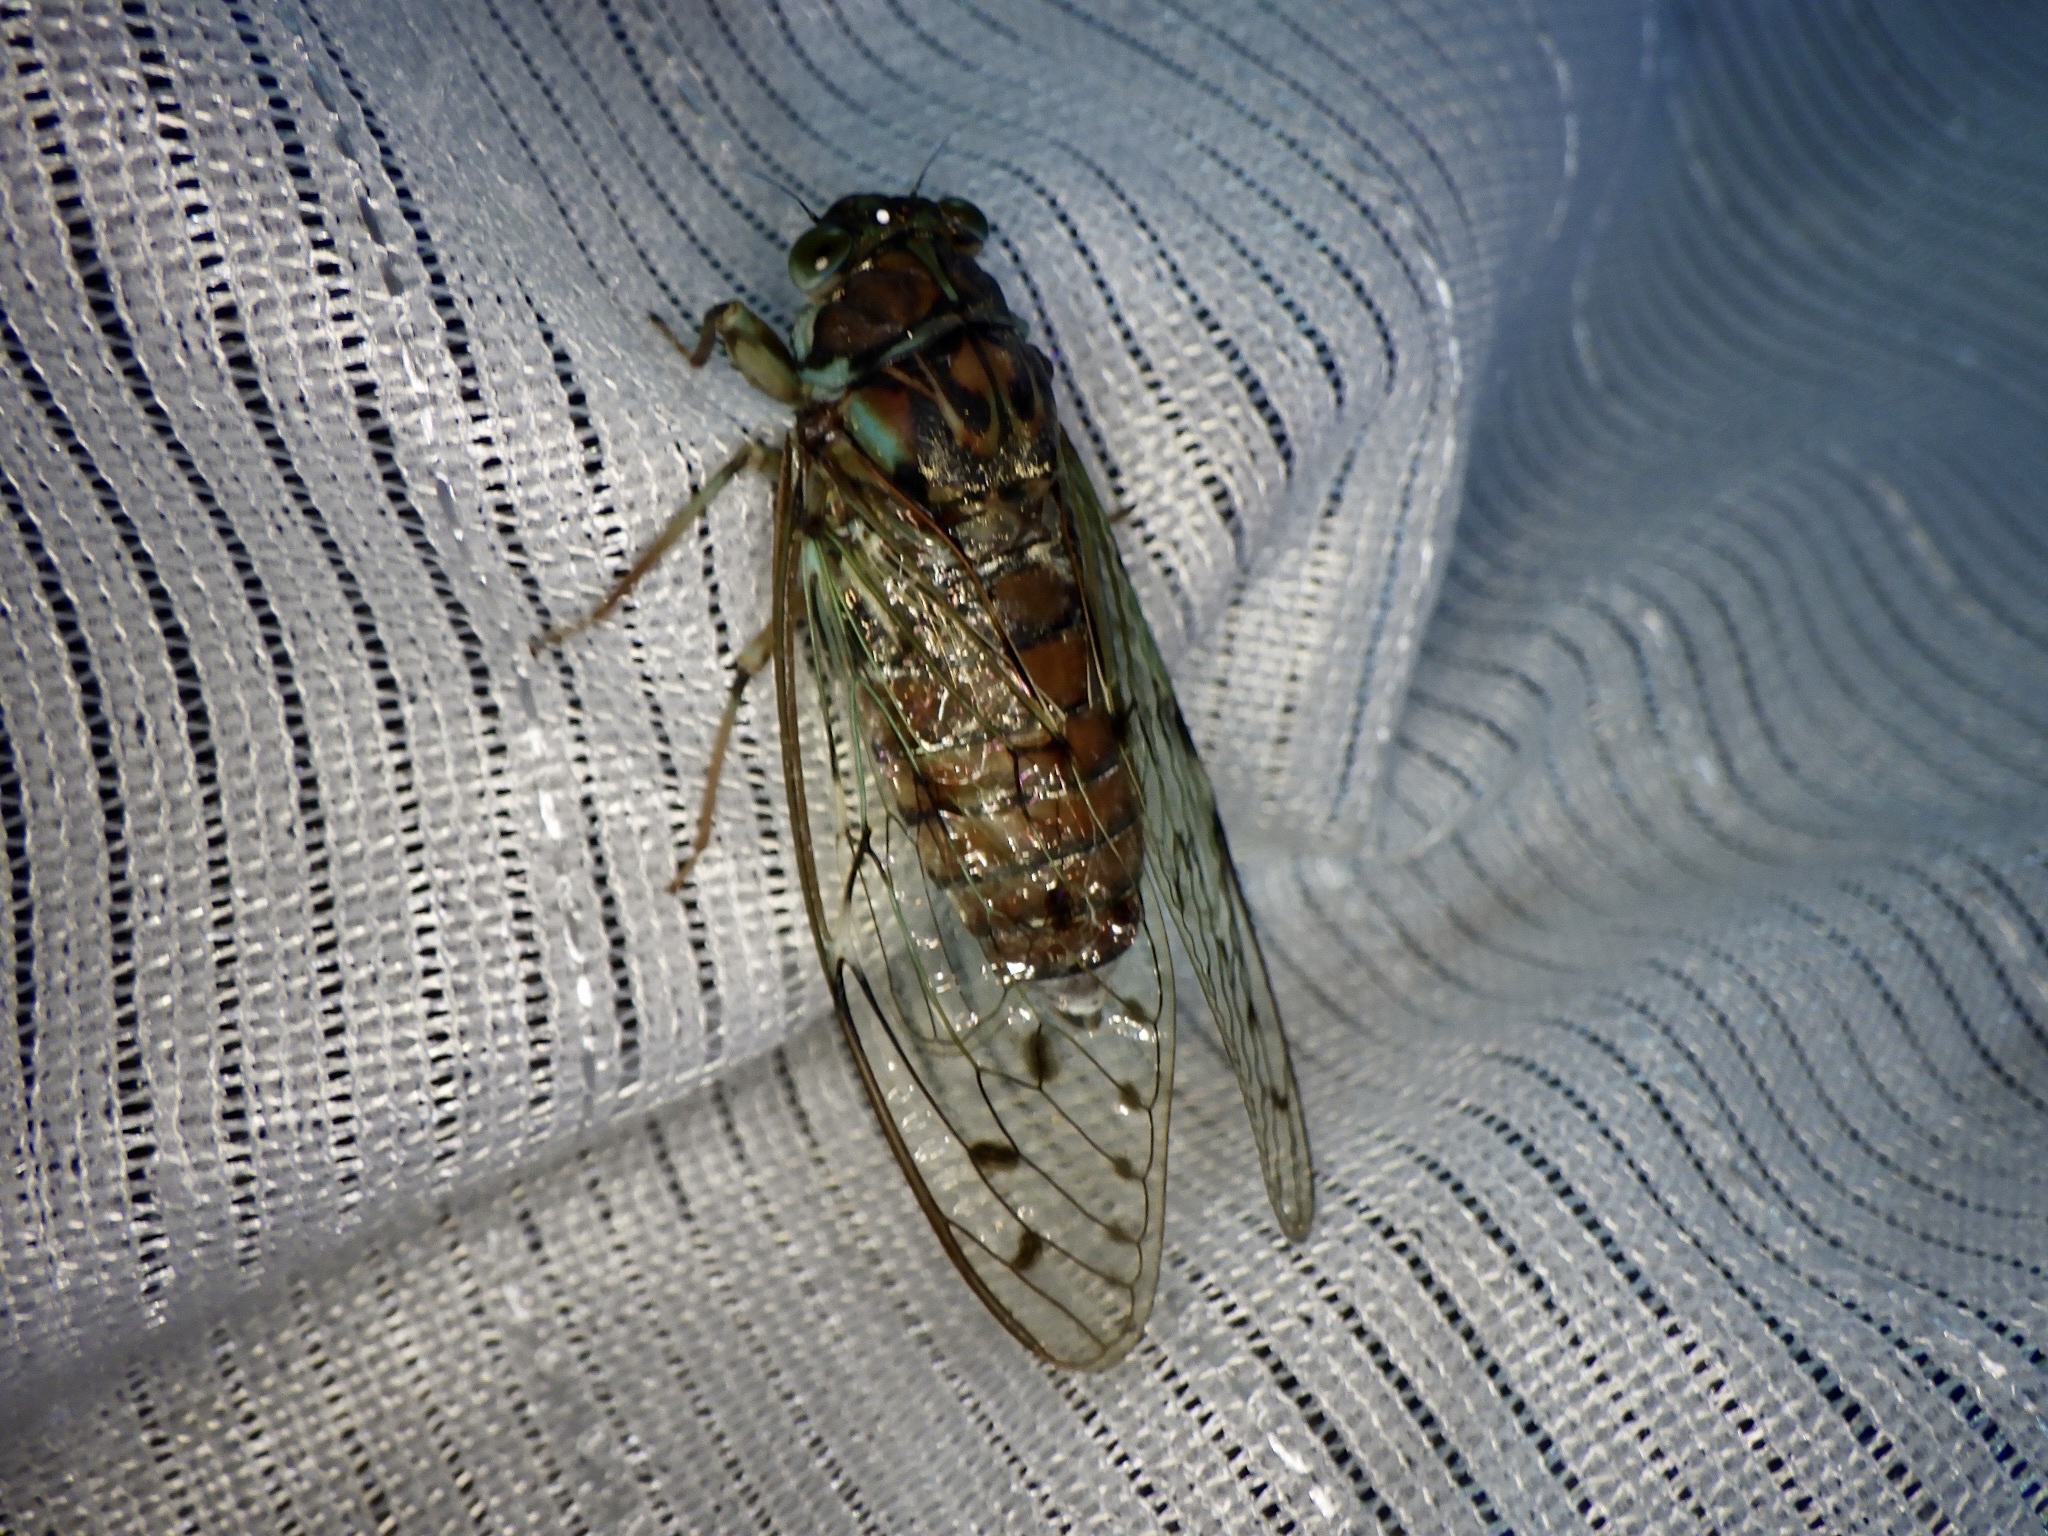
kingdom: Animalia
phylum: Arthropoda
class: Insecta
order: Hemiptera
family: Cicadidae
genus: Tanna
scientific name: Tanna japonensis
